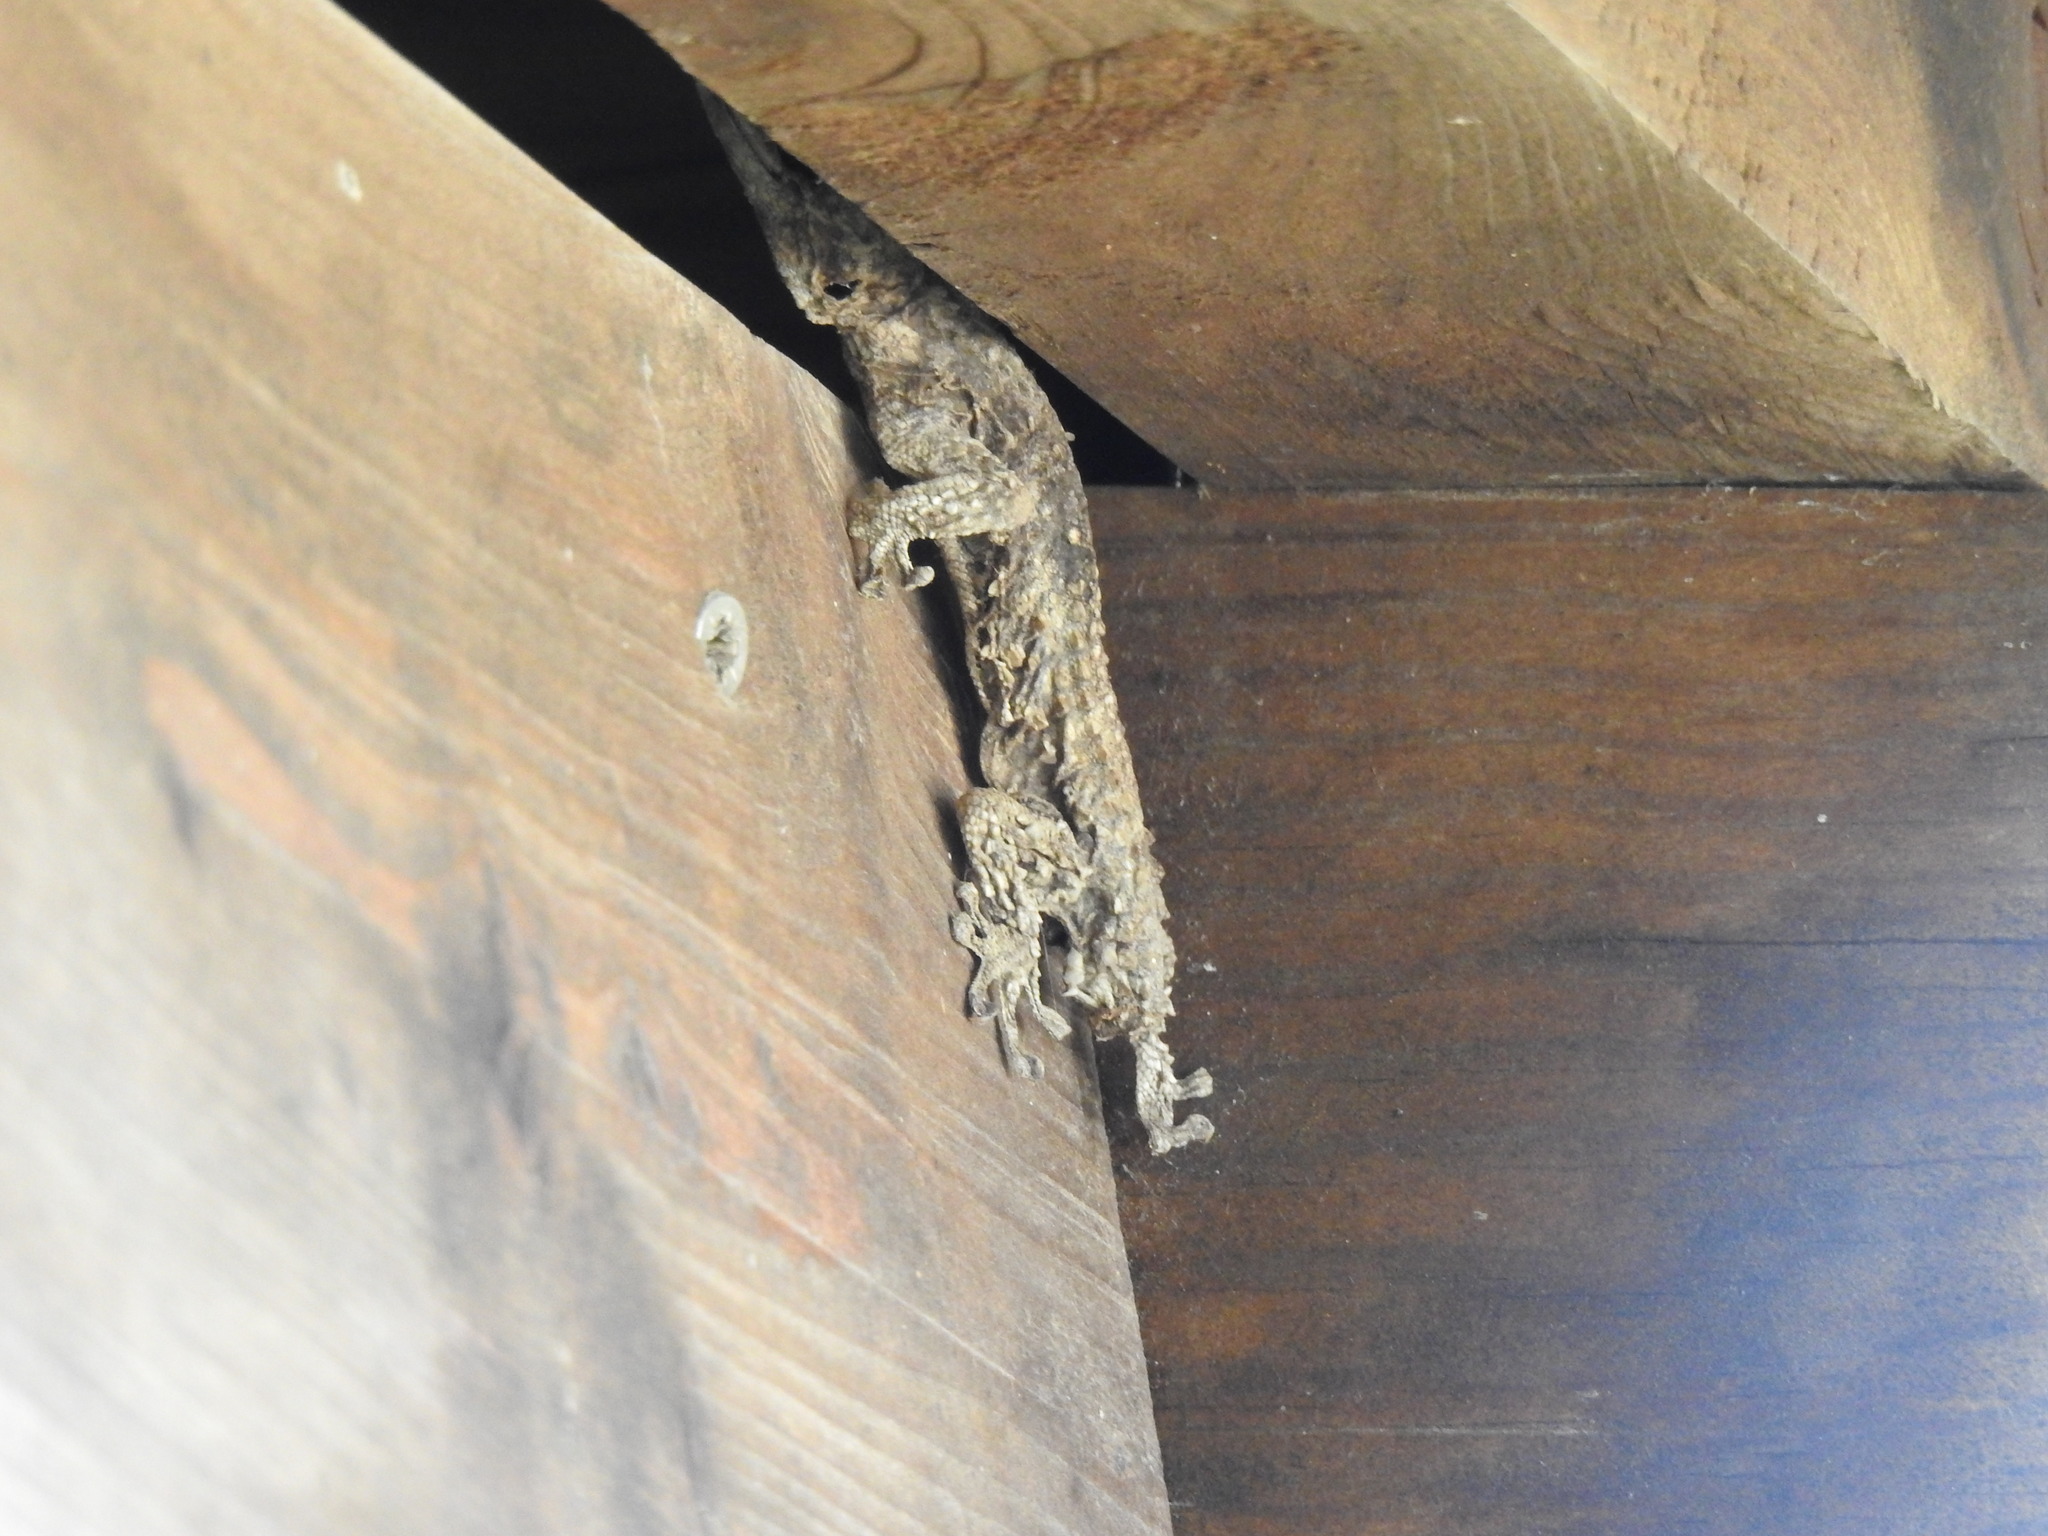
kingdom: Animalia
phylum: Chordata
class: Squamata
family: Phyllodactylidae
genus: Tarentola
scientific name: Tarentola mauritanica
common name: Moorish gecko
